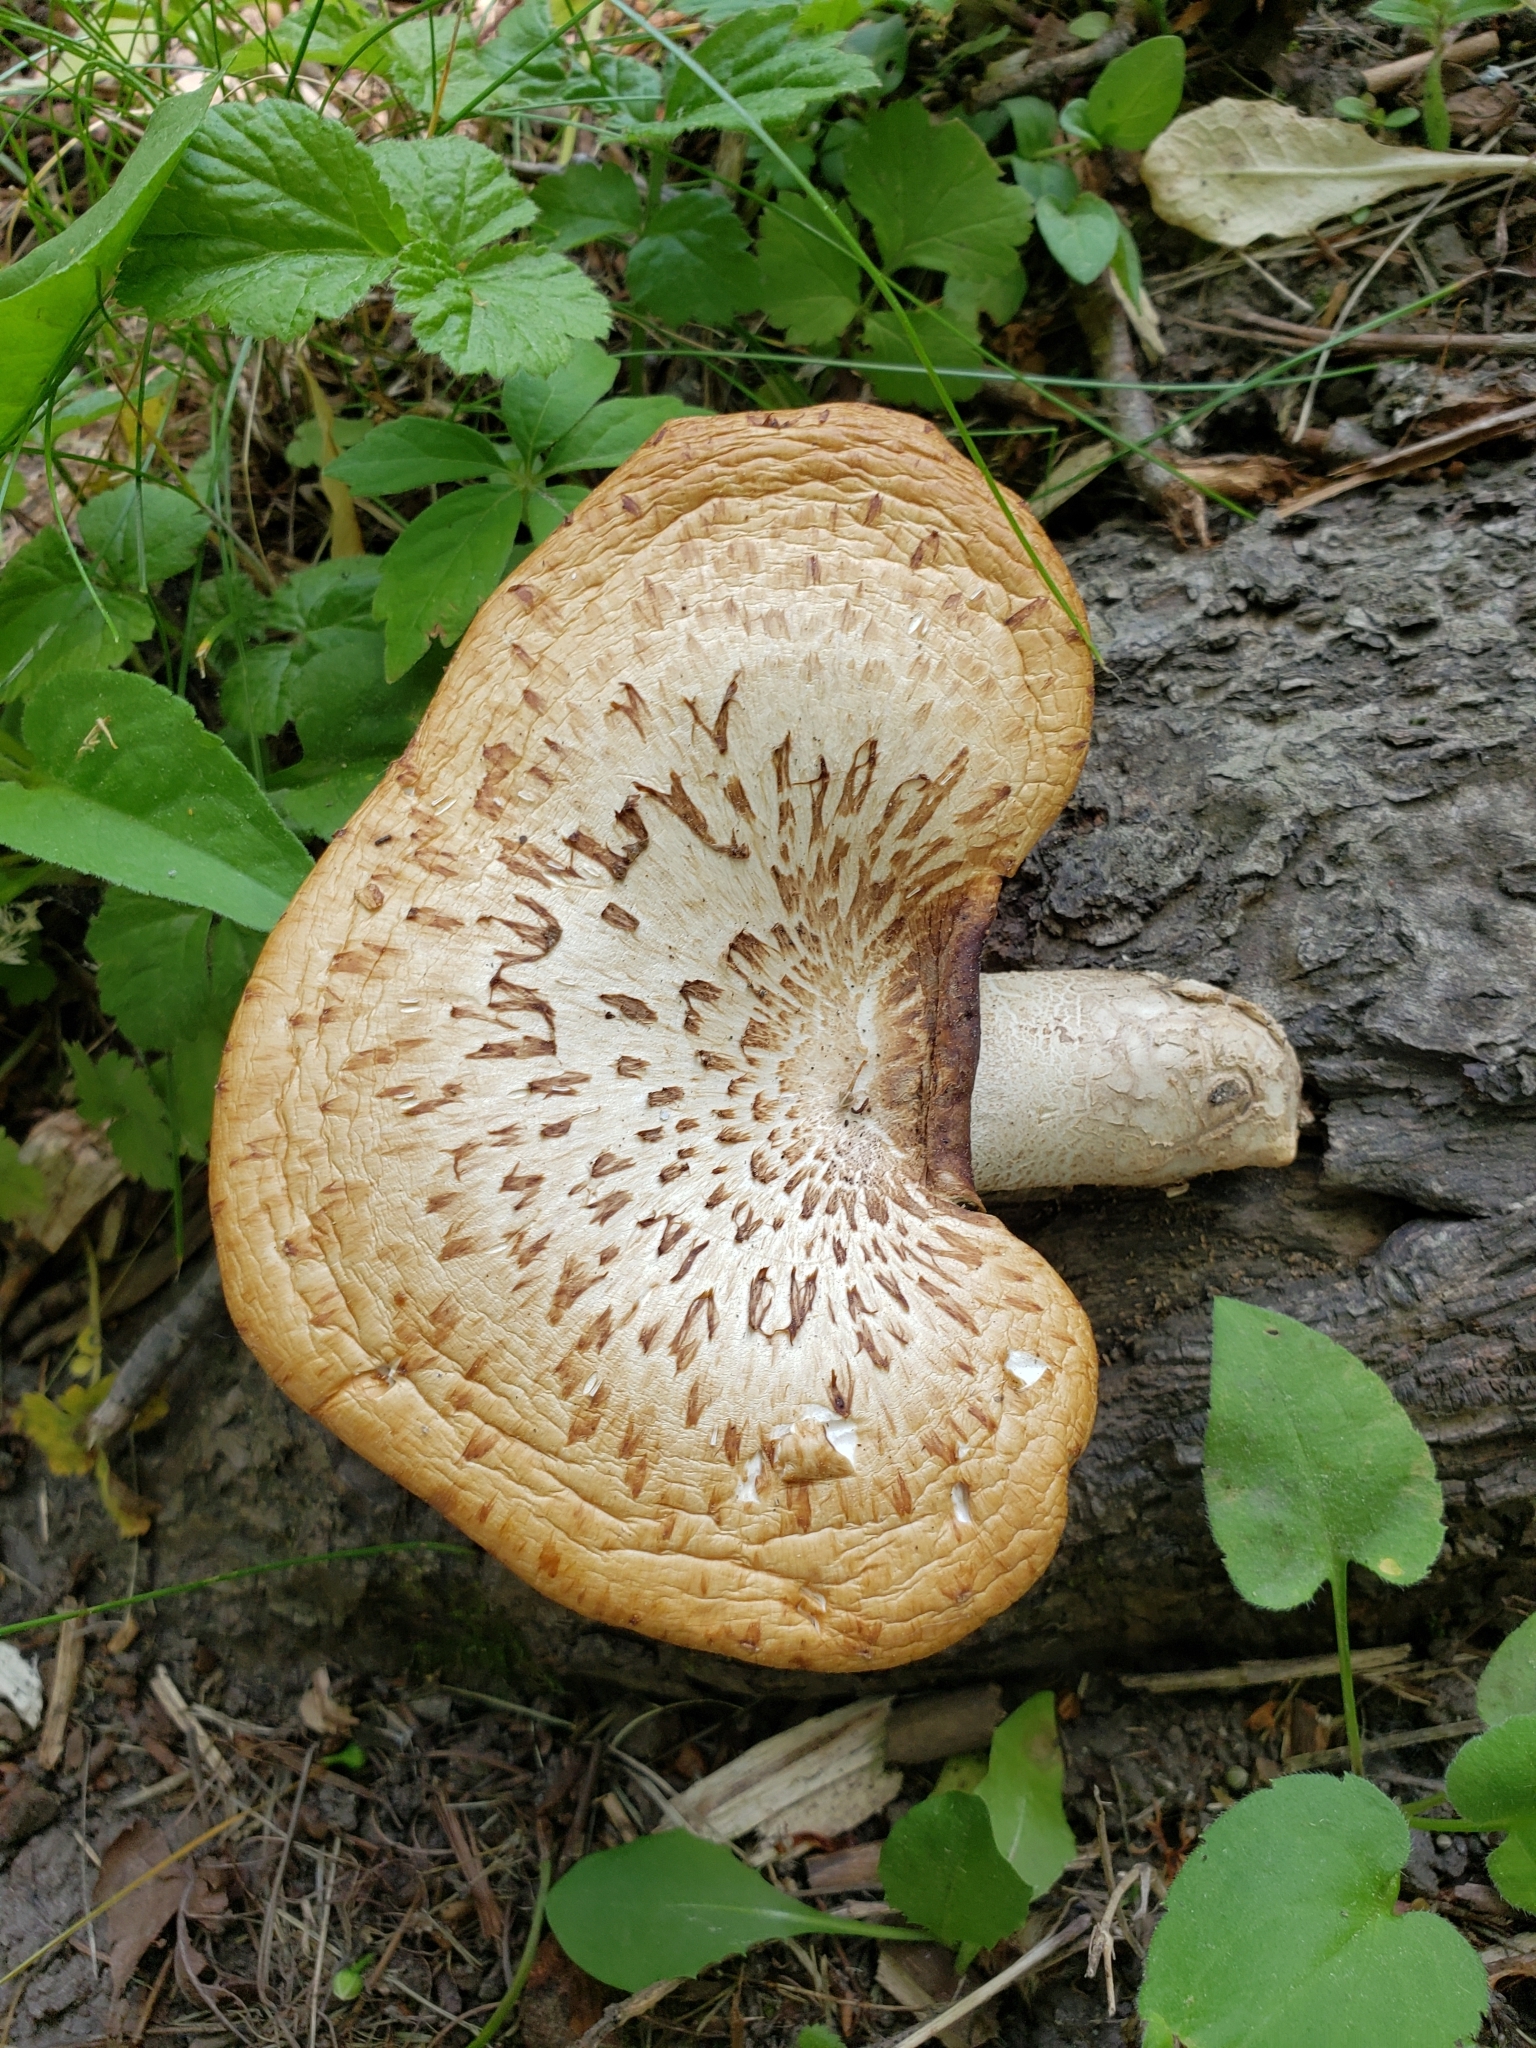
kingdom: Fungi
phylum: Basidiomycota
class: Agaricomycetes
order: Polyporales
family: Polyporaceae
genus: Cerioporus
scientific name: Cerioporus squamosus
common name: Dryad's saddle
